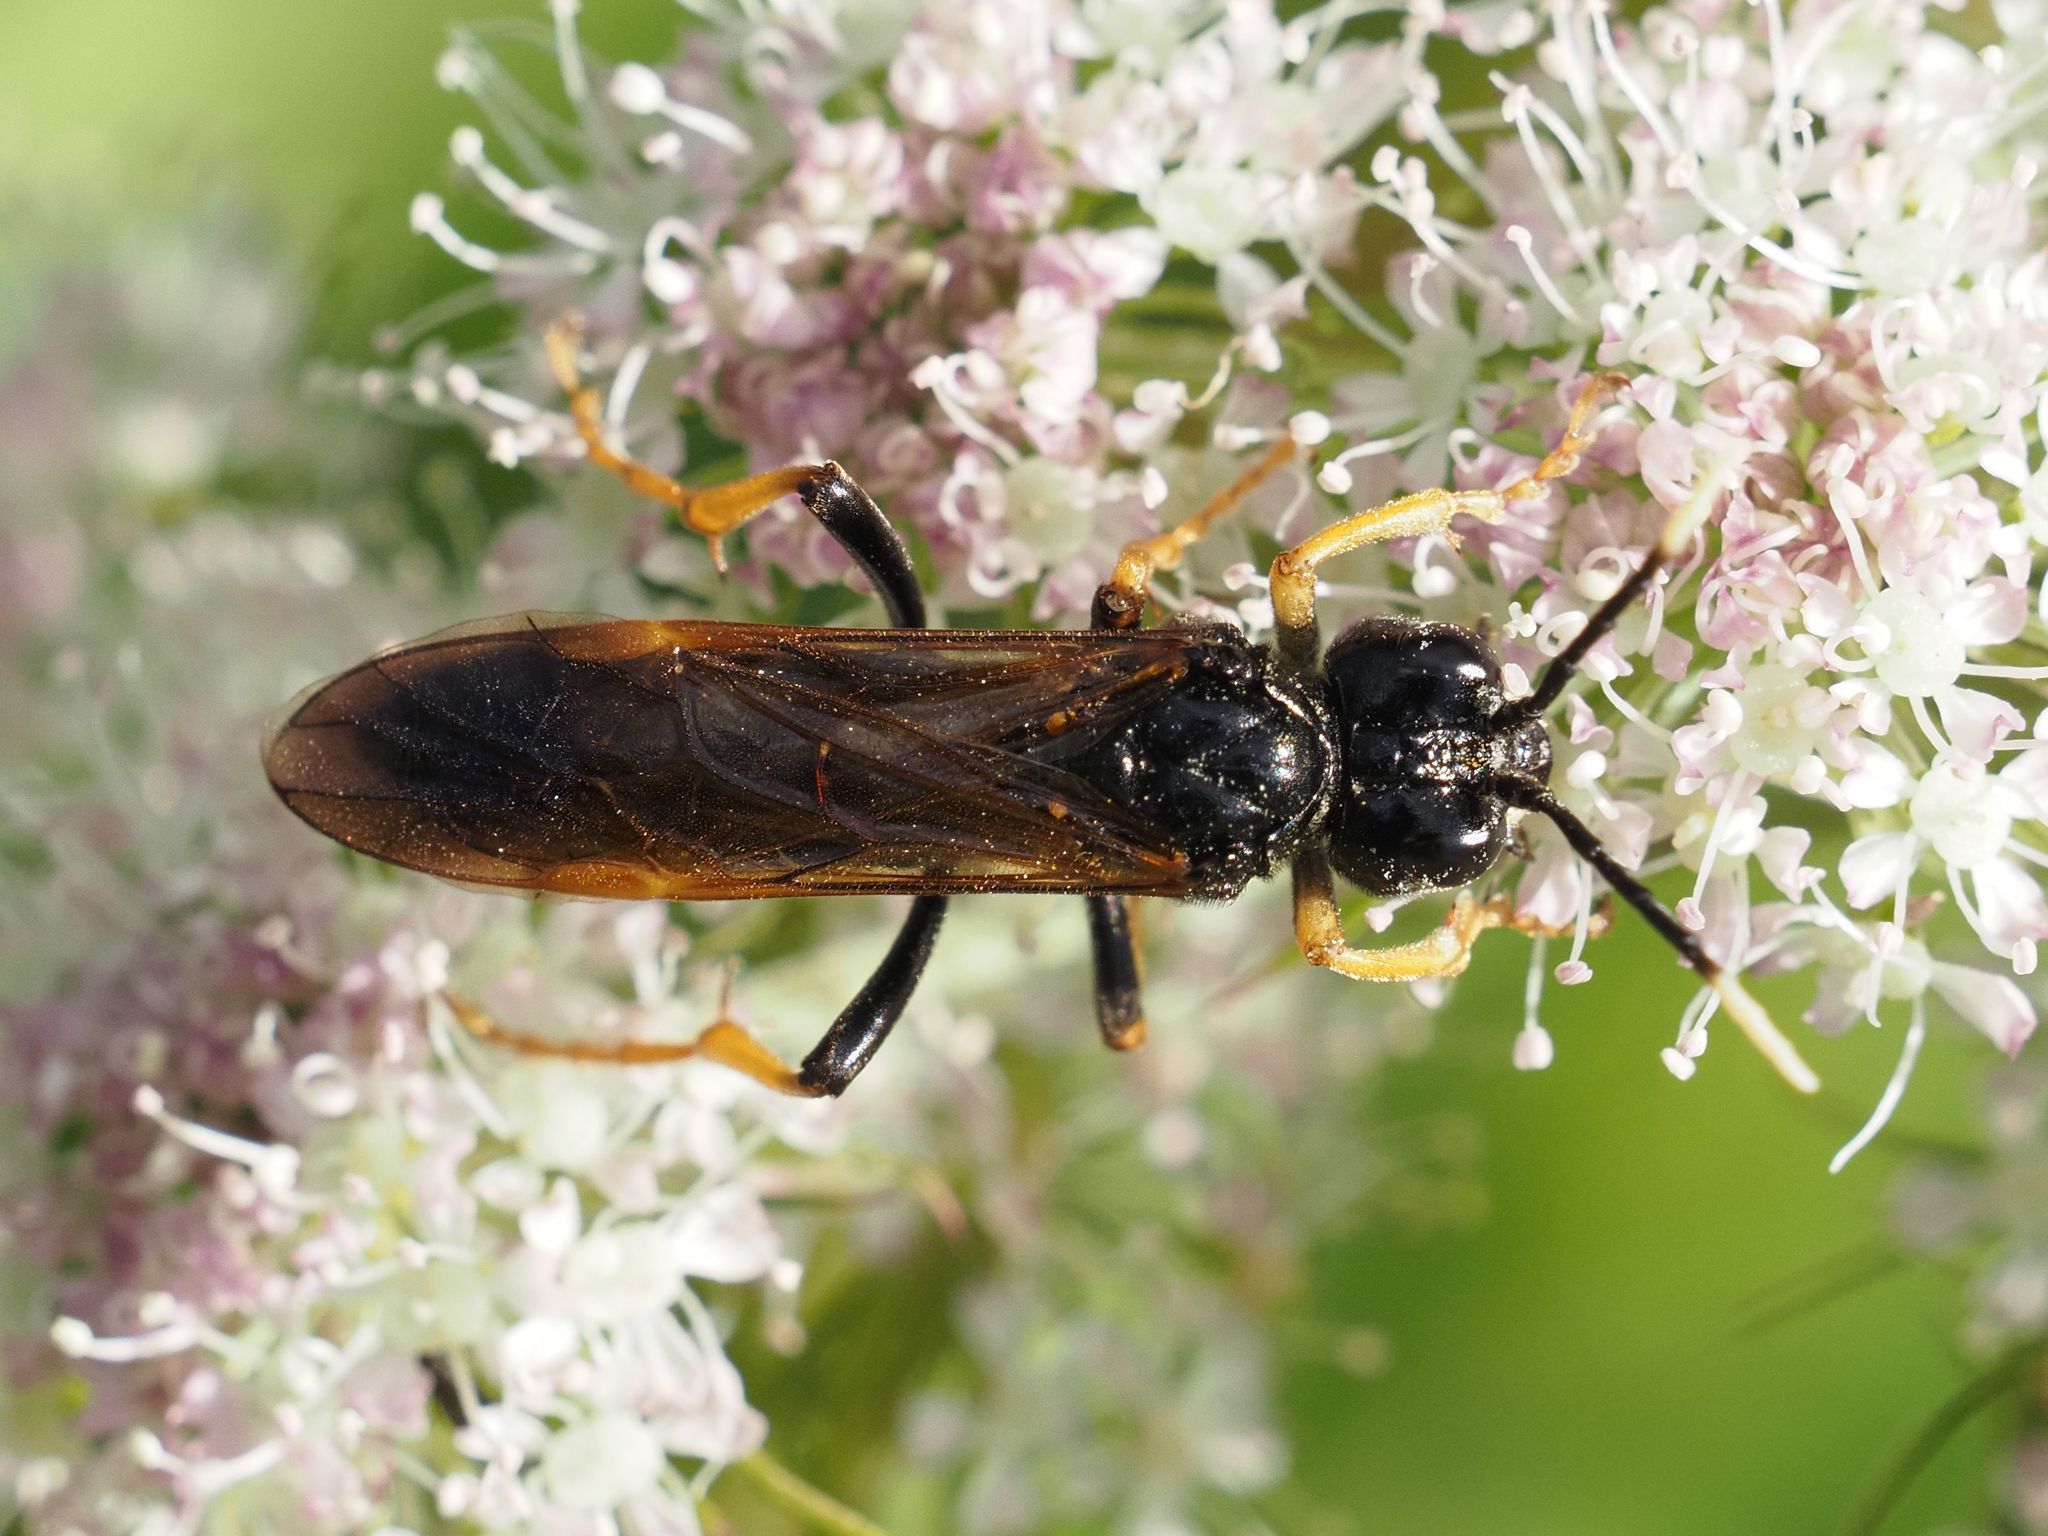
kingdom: Animalia
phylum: Arthropoda
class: Insecta
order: Hymenoptera
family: Tenthredinidae
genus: Tenthredo
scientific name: Tenthredo crassa
